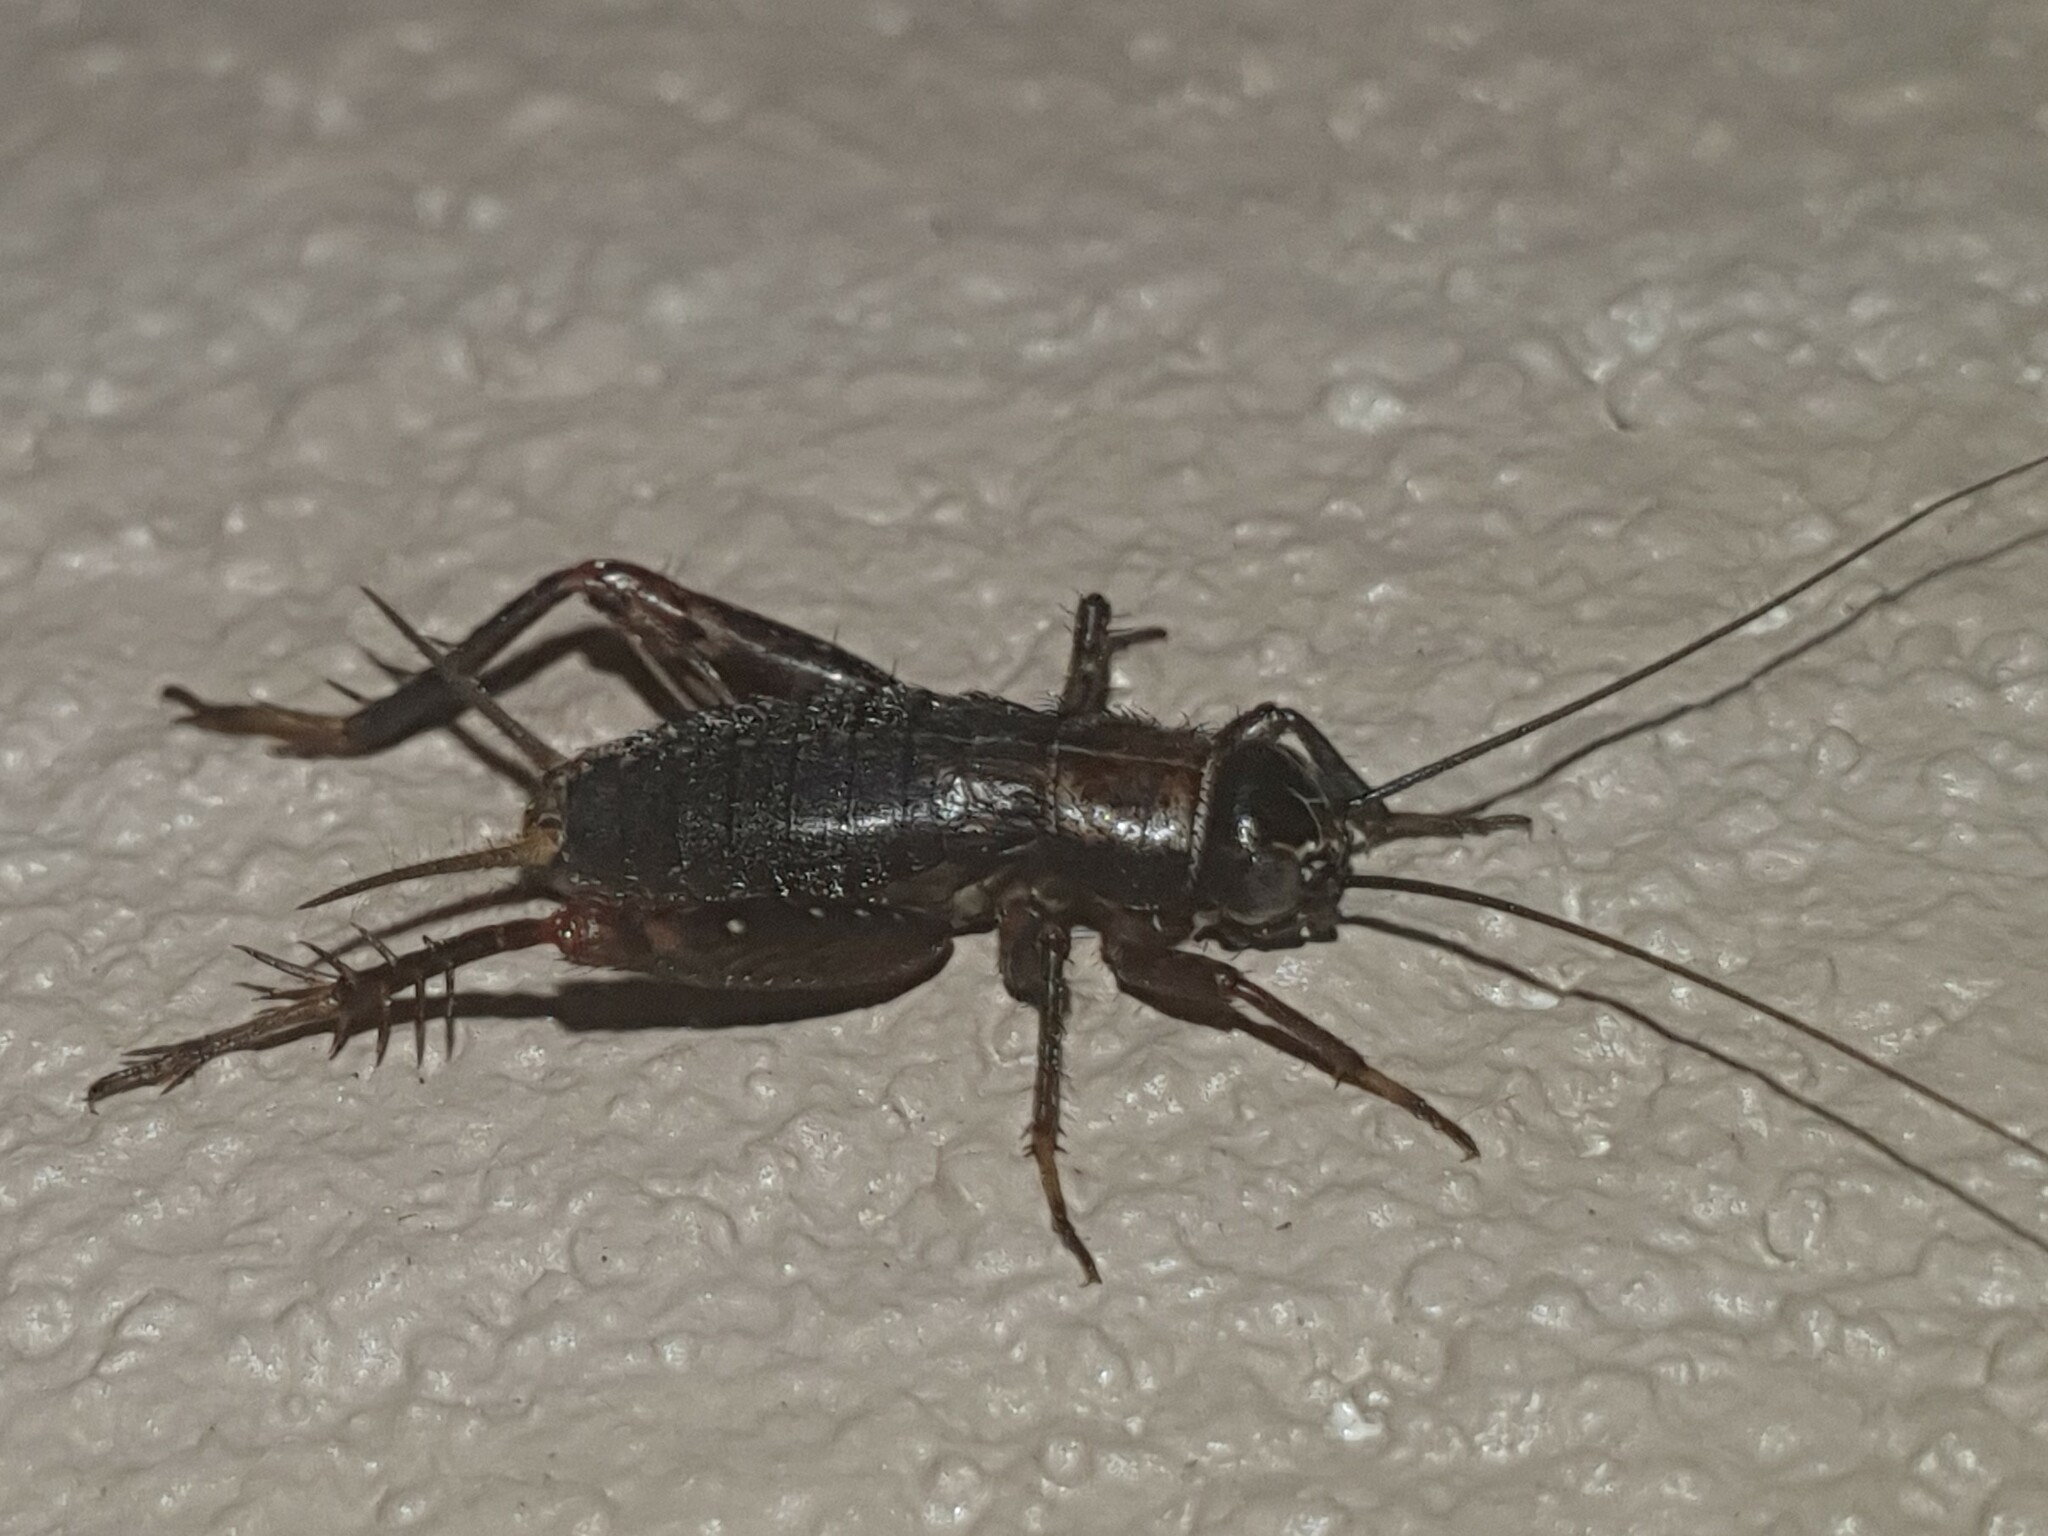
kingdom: Animalia
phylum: Arthropoda
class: Insecta
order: Orthoptera
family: Trigonidiidae
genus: Nemobius
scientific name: Nemobius sylvestris
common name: Wood-cricket
